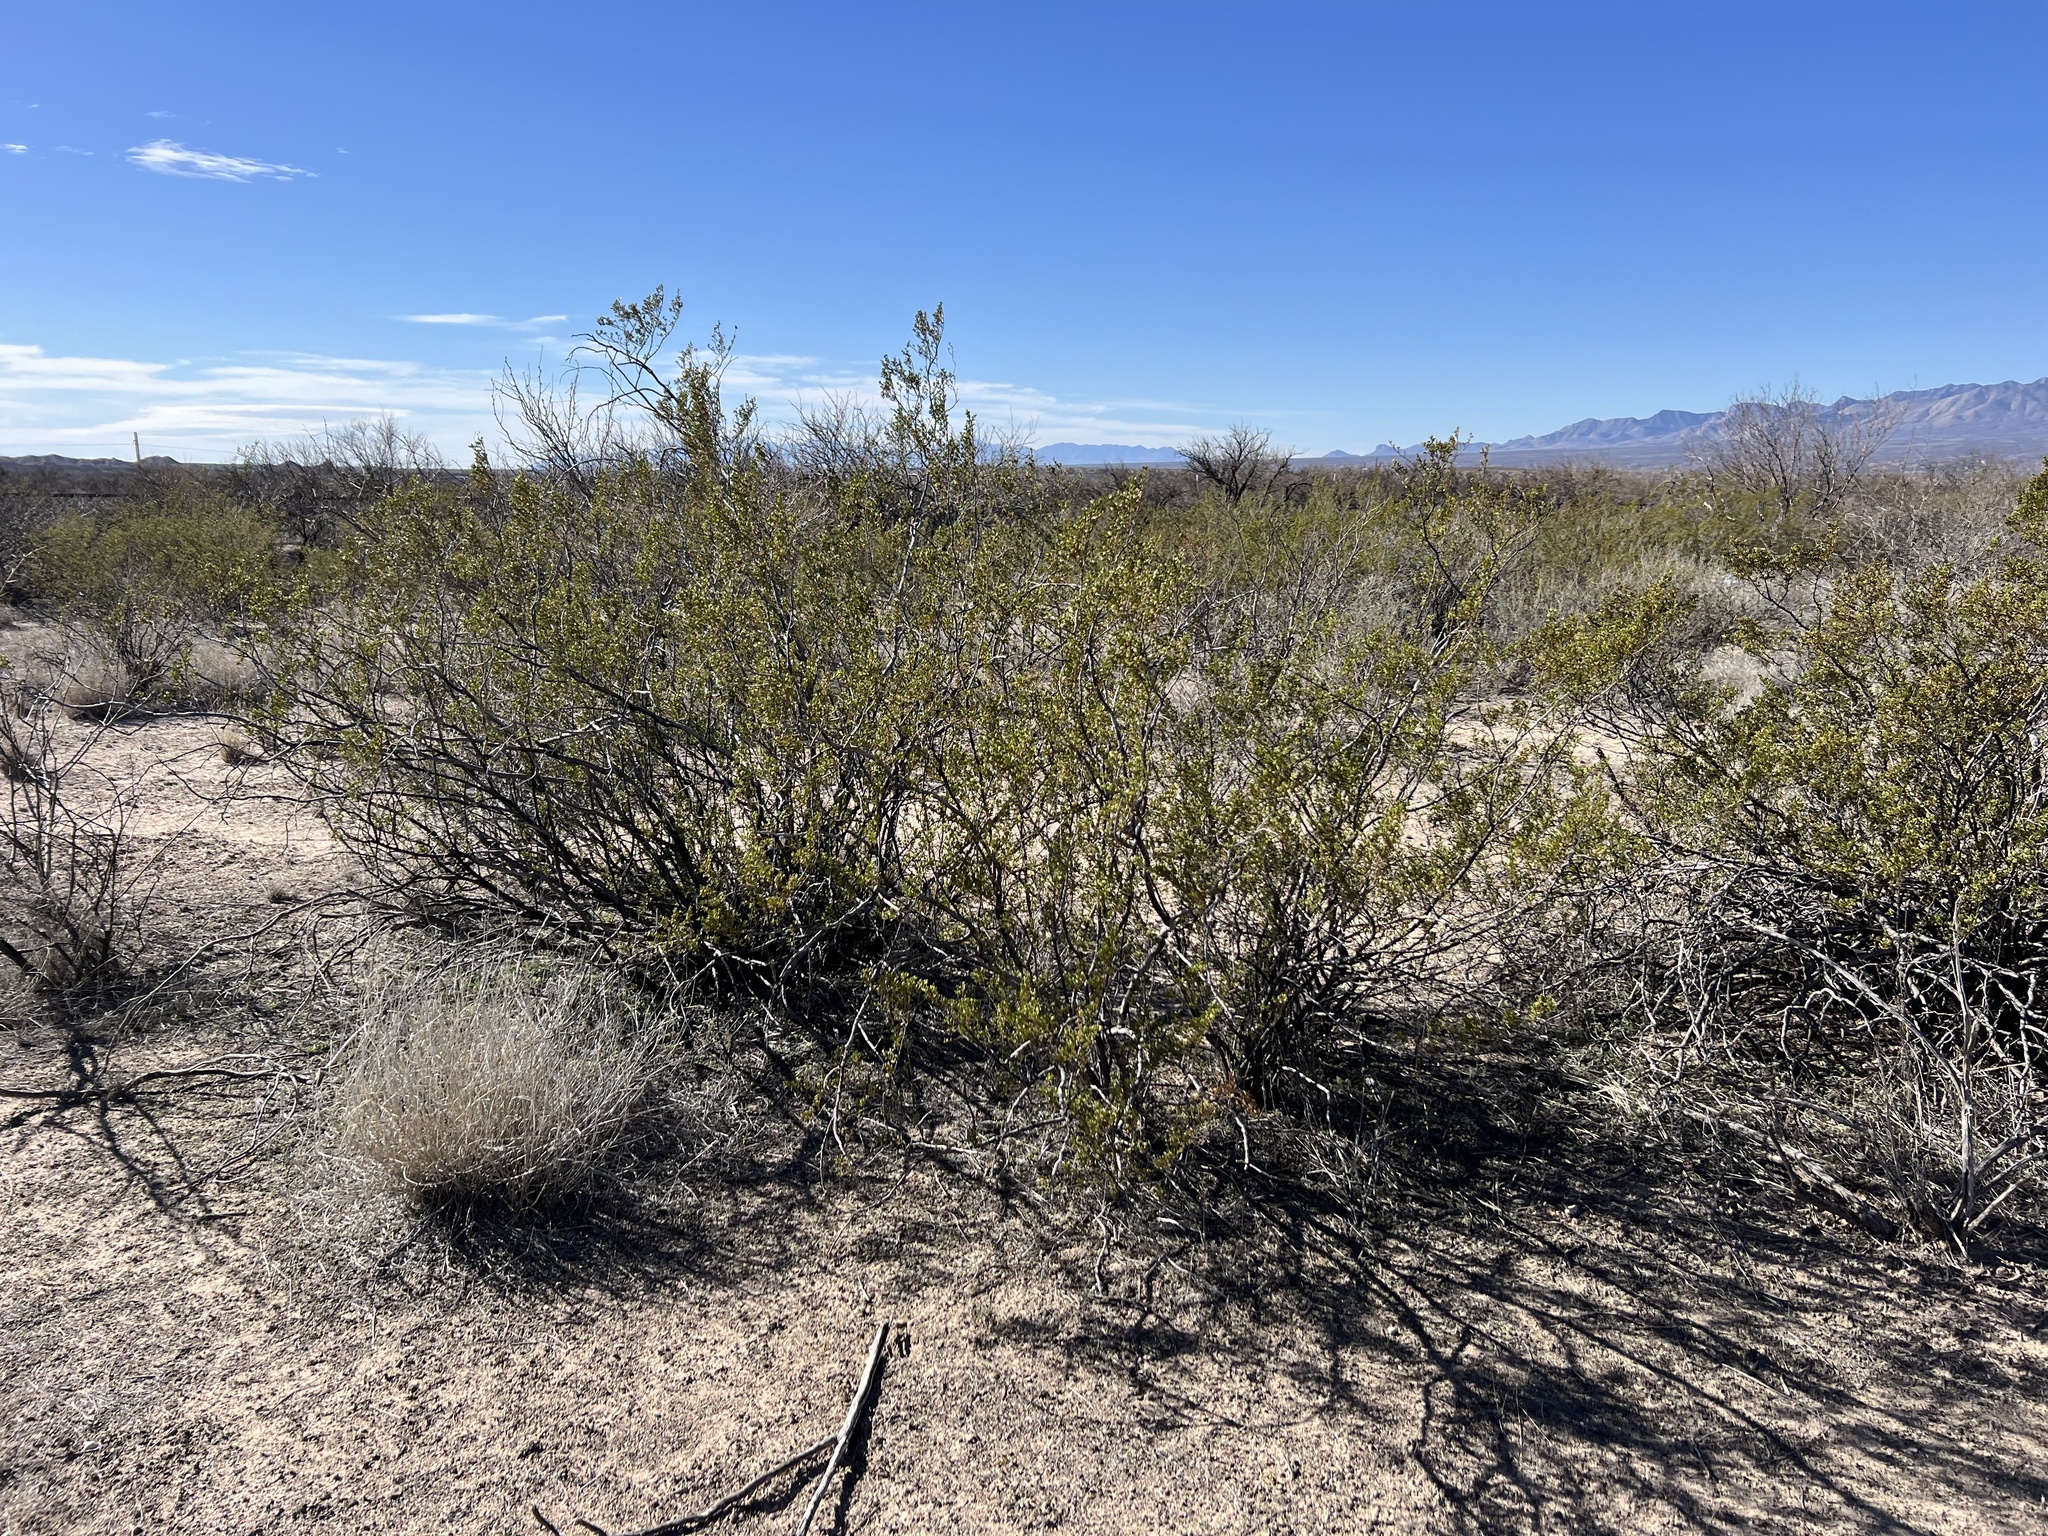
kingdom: Plantae
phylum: Tracheophyta
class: Magnoliopsida
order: Zygophyllales
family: Zygophyllaceae
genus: Larrea
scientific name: Larrea tridentata
